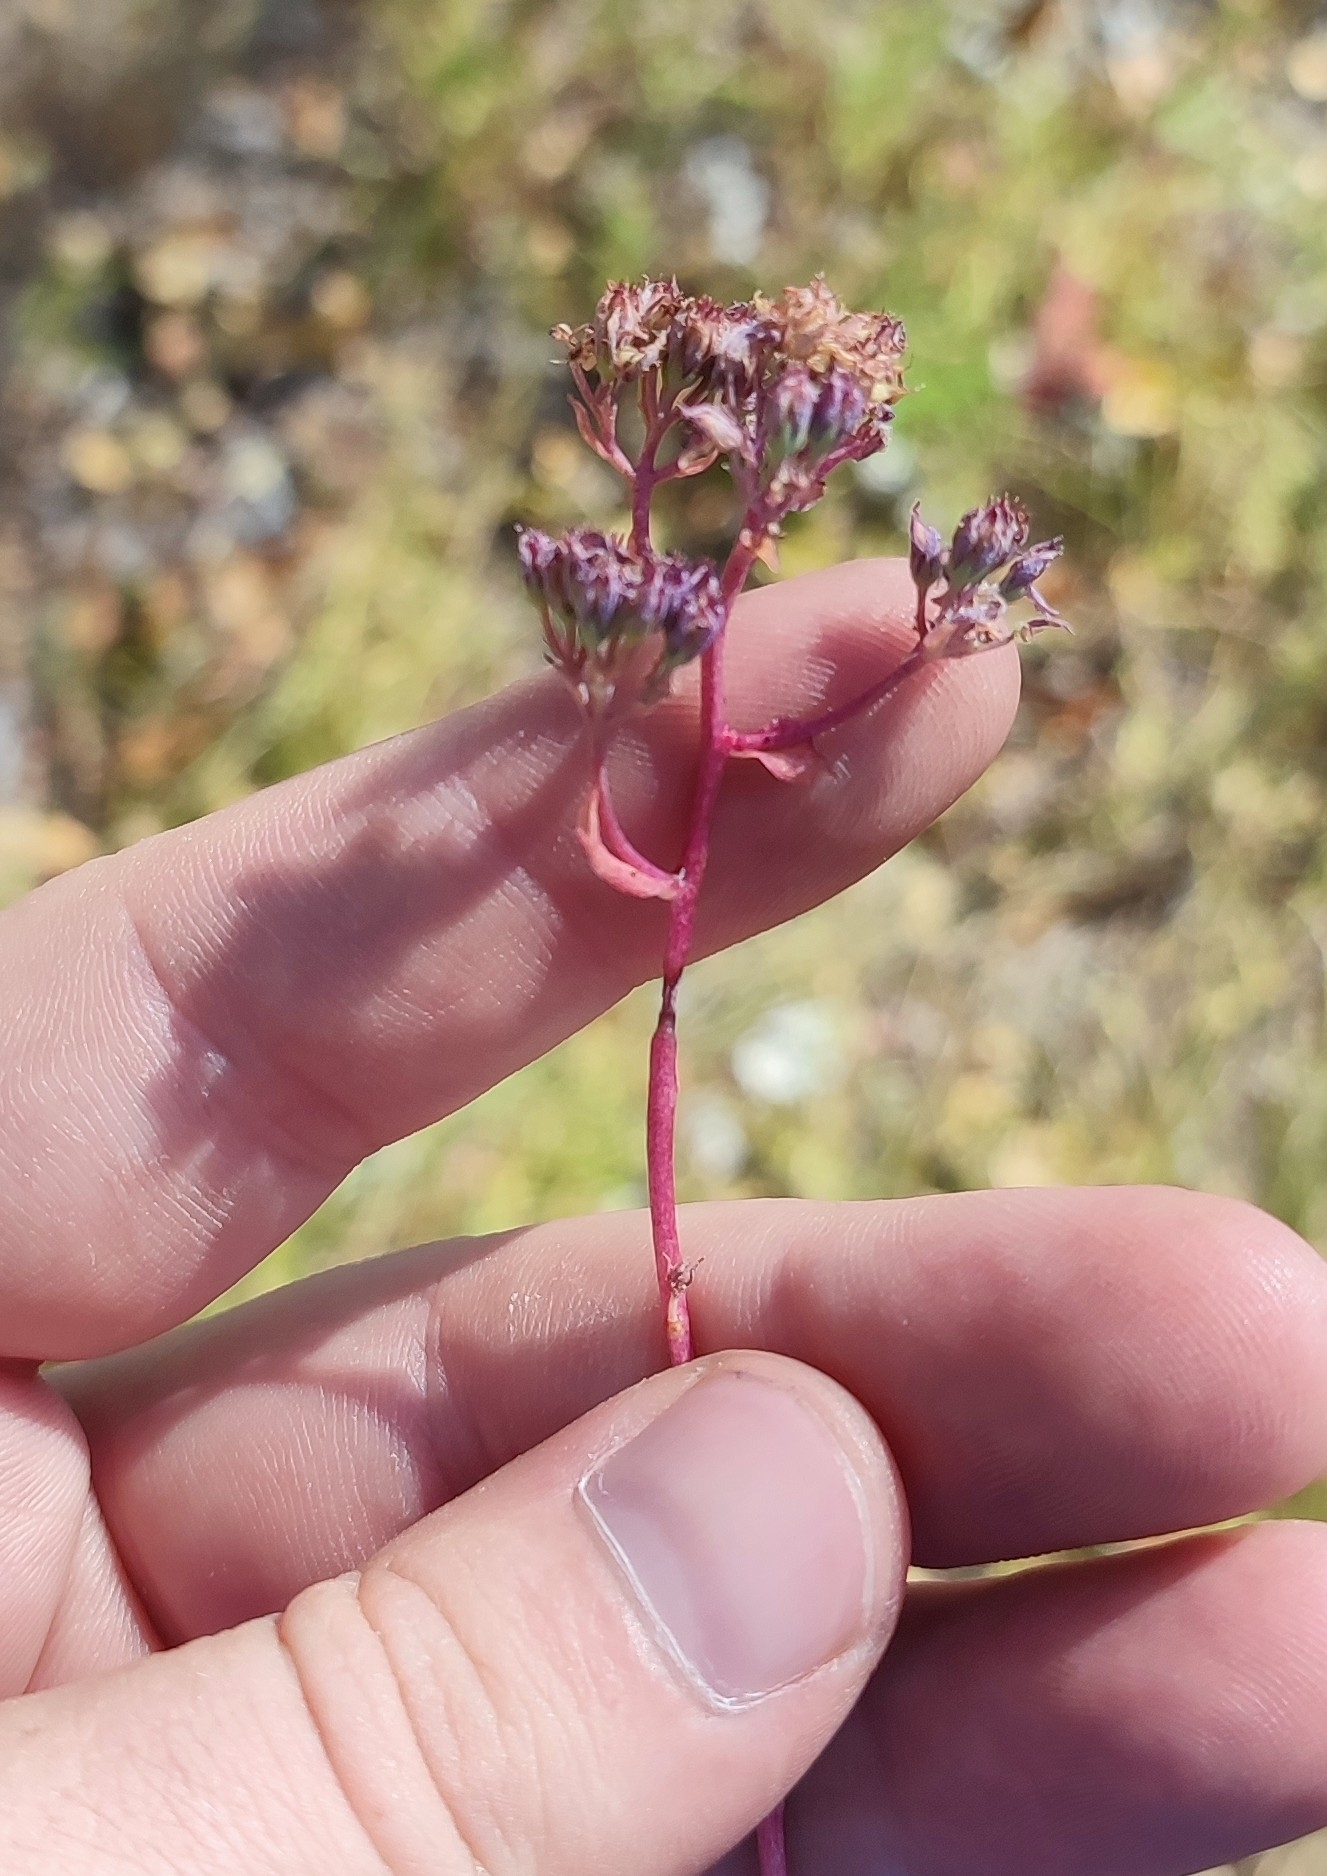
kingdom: Plantae
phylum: Tracheophyta
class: Magnoliopsida
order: Saxifragales
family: Crassulaceae
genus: Hylotelephium
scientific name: Hylotelephium telephium
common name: Live-forever
